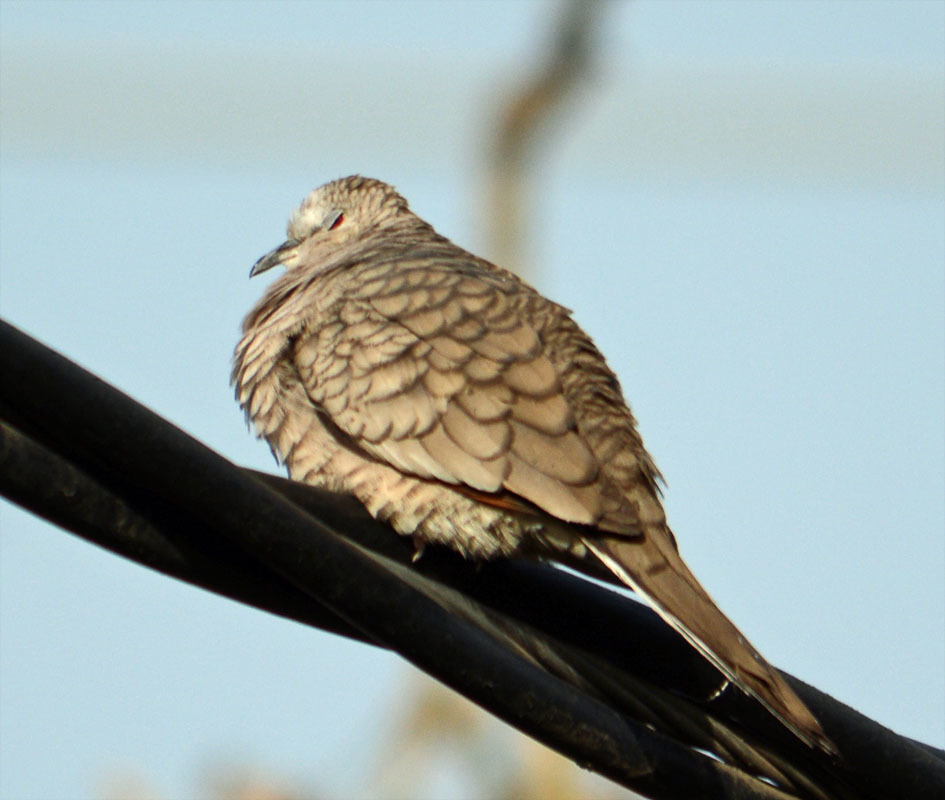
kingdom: Animalia
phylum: Chordata
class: Aves
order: Columbiformes
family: Columbidae
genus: Columbina
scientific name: Columbina inca
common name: Inca dove
